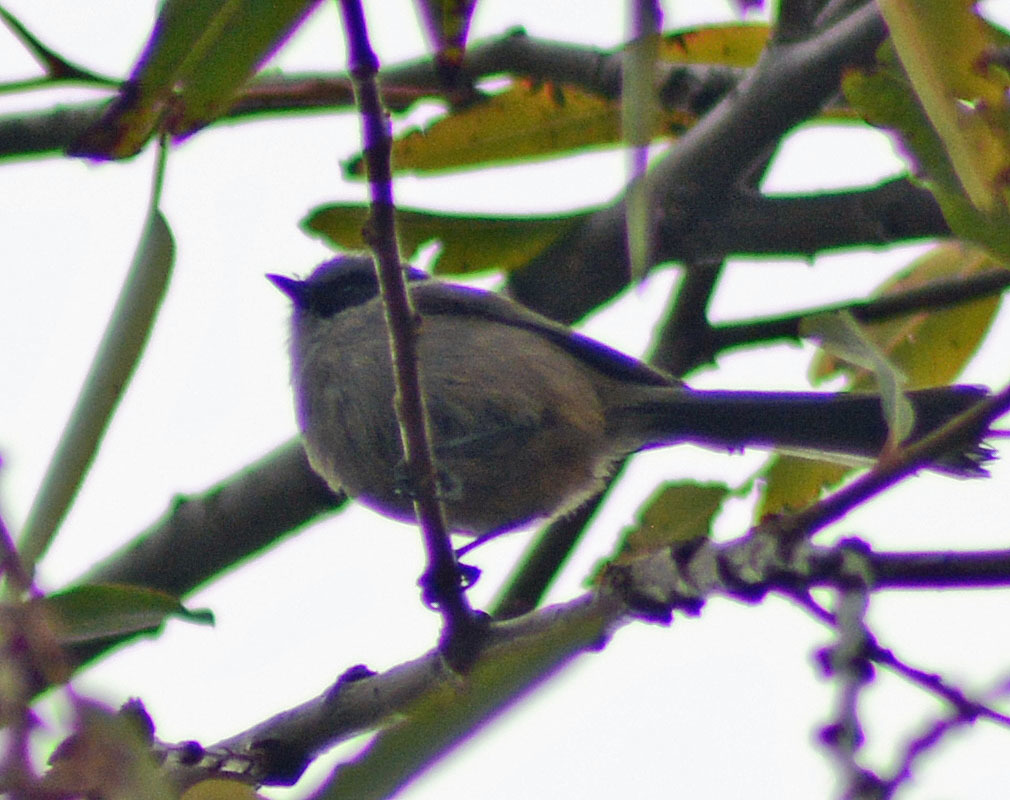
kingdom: Animalia
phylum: Chordata
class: Aves
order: Passeriformes
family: Aegithalidae
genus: Psaltriparus
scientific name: Psaltriparus minimus
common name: American bushtit
